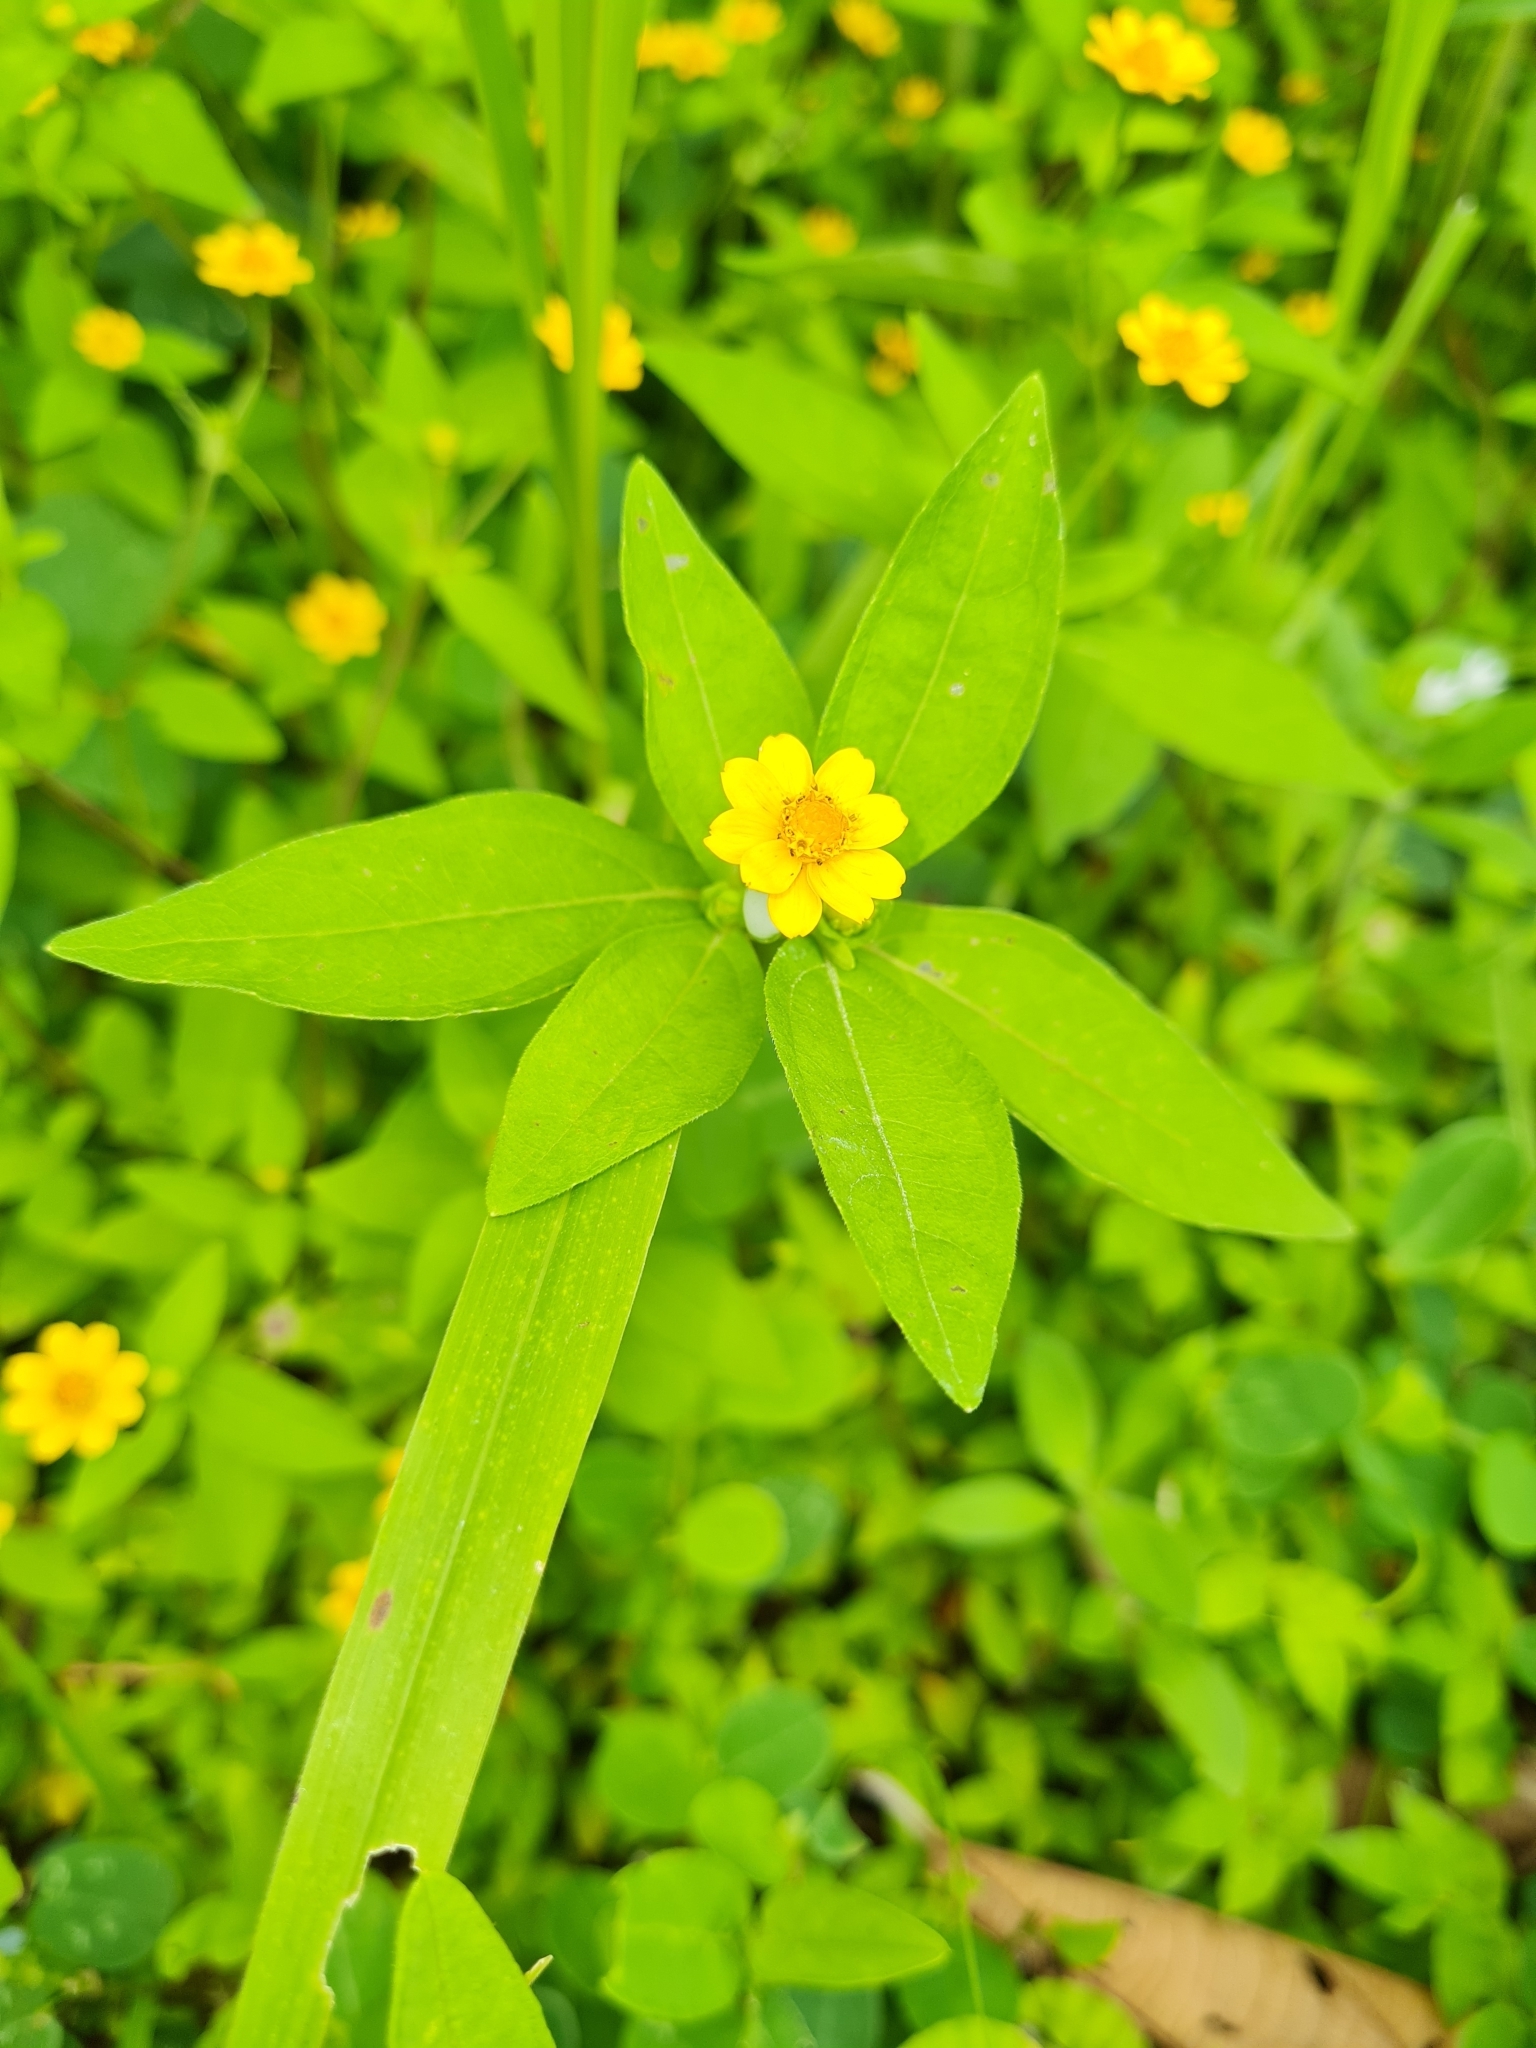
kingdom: Plantae
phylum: Tracheophyta
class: Magnoliopsida
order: Asterales
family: Asteraceae
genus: Melampodium
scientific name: Melampodium divaricatum
